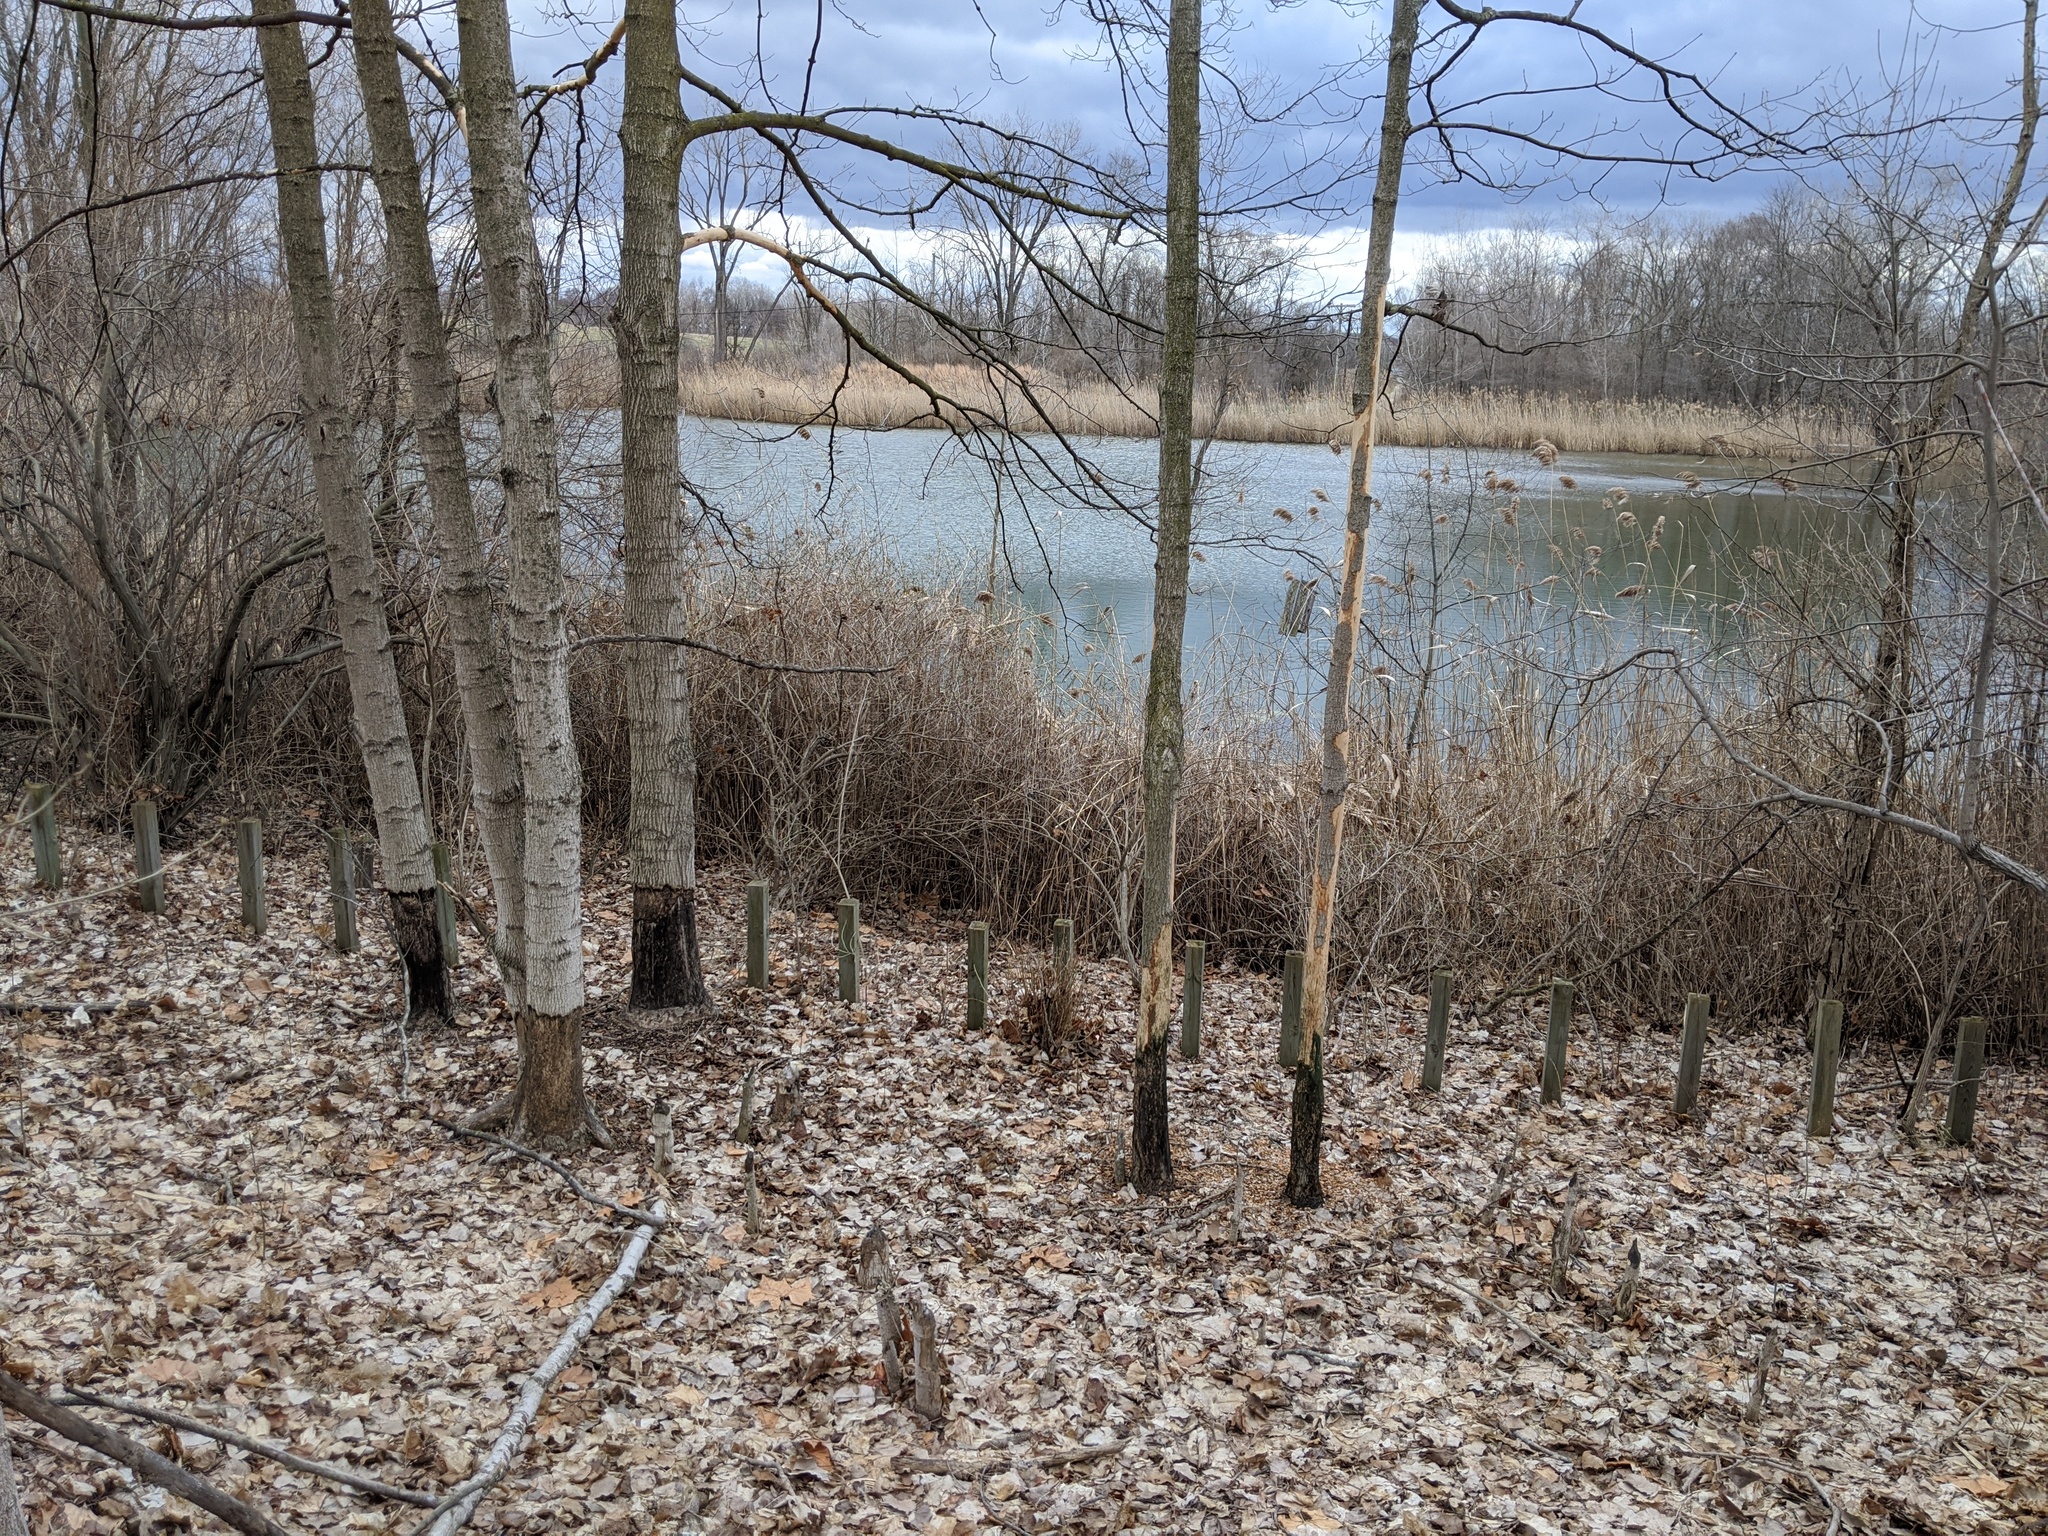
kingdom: Animalia
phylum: Chordata
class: Mammalia
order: Rodentia
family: Castoridae
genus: Castor
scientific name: Castor canadensis
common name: American beaver
